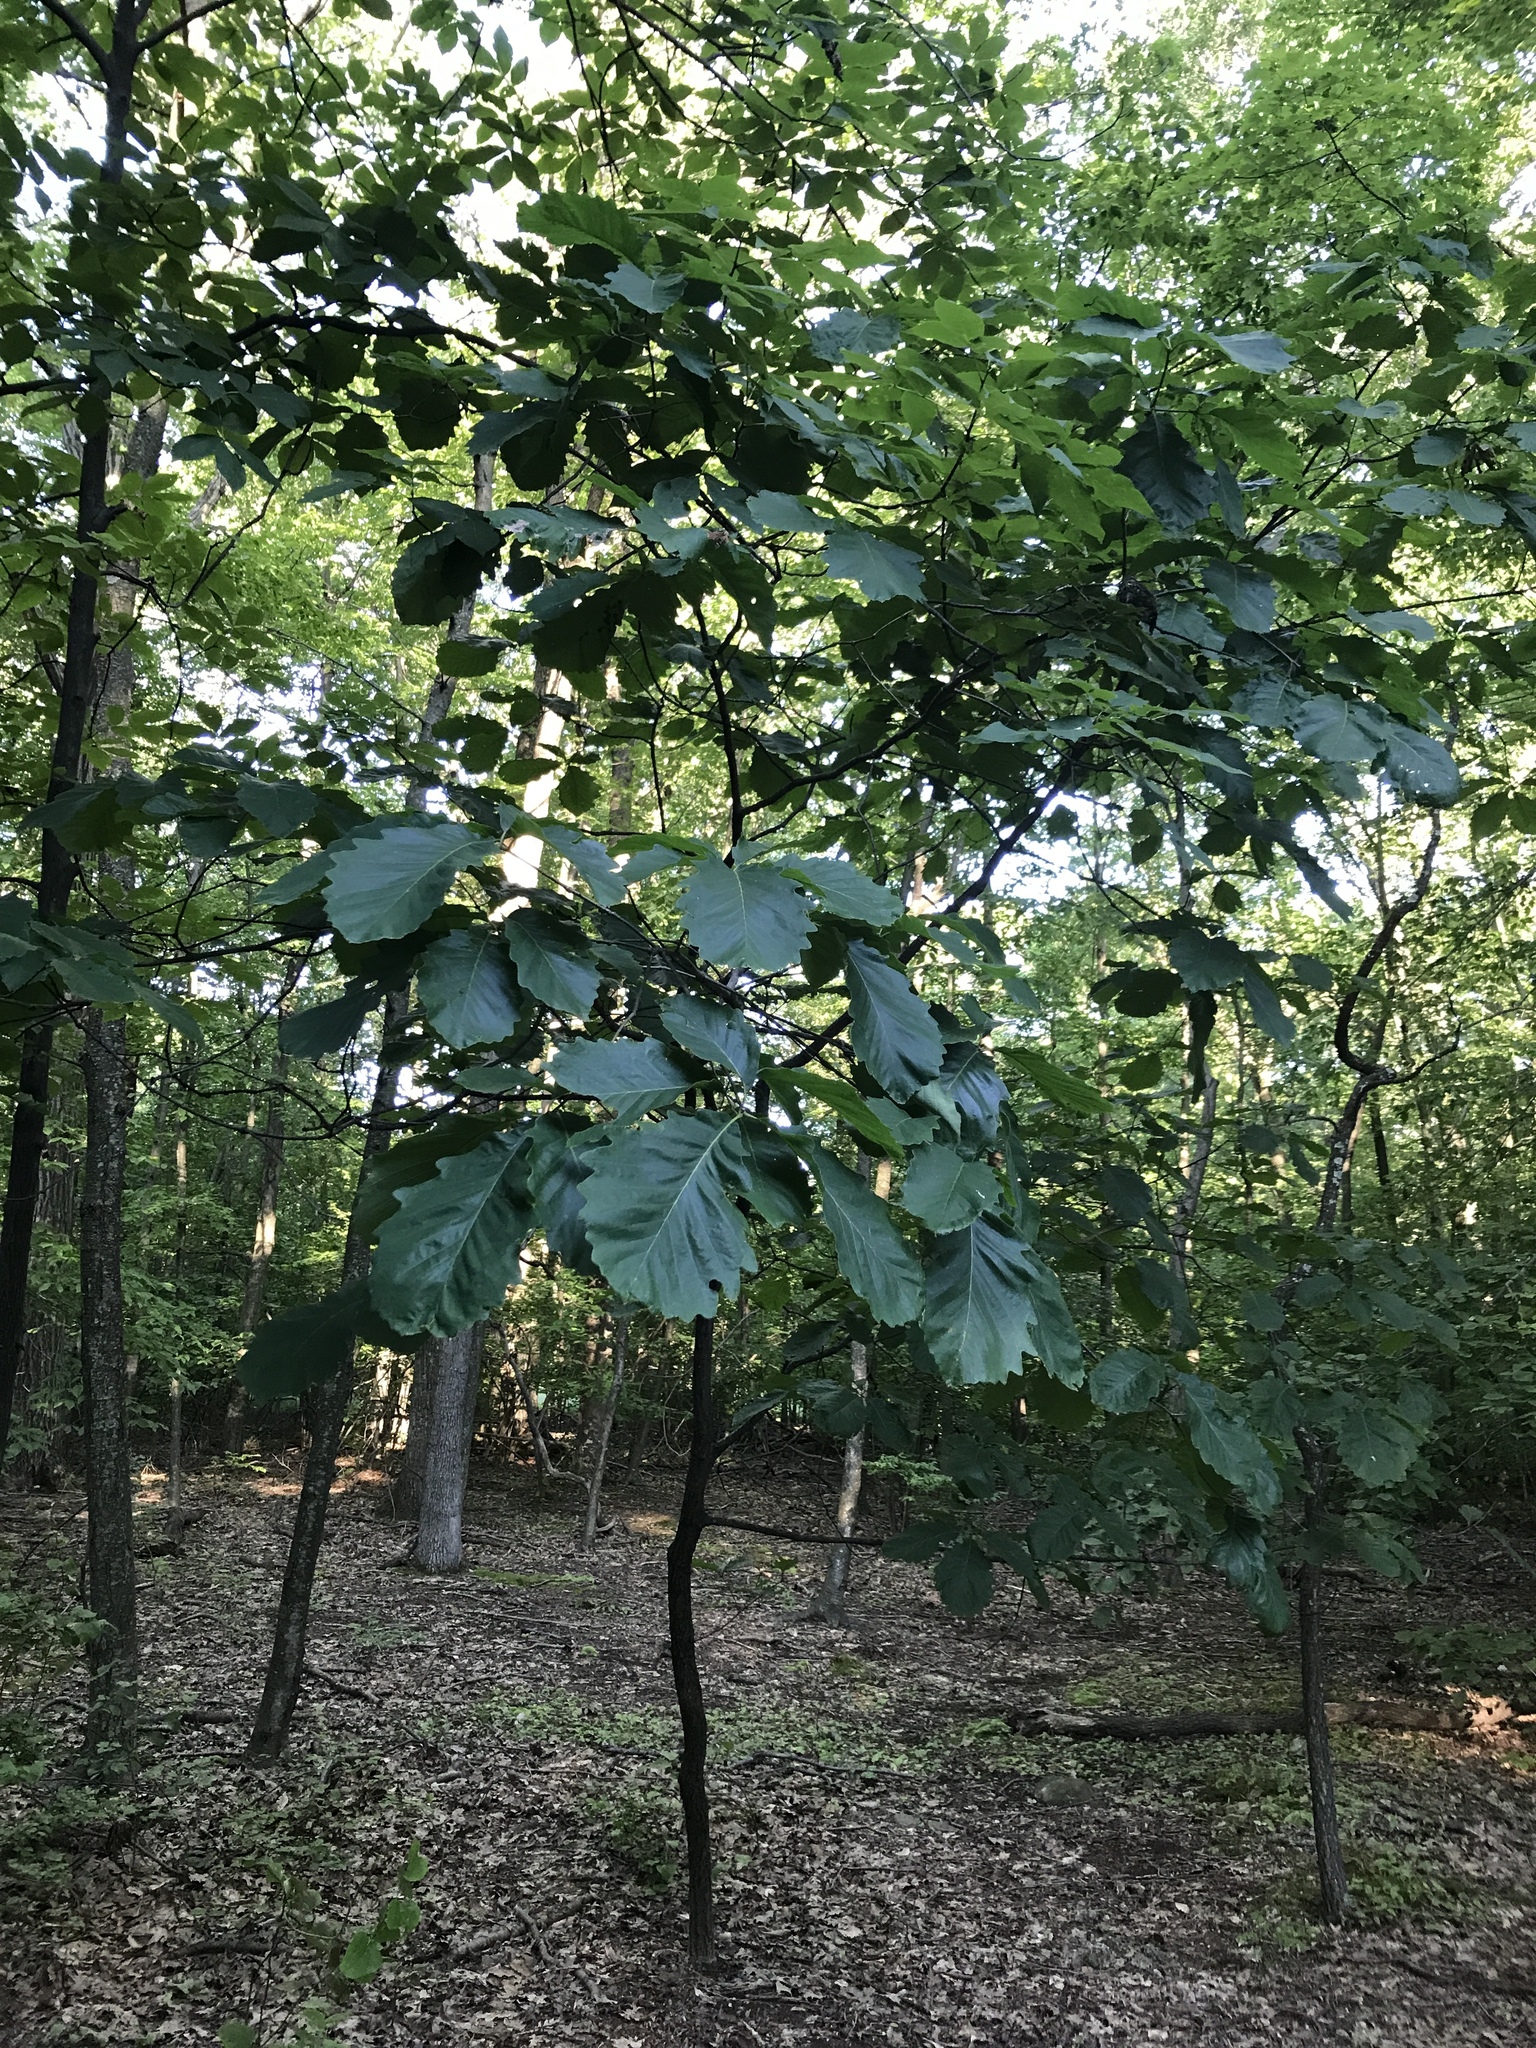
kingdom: Plantae
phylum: Tracheophyta
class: Magnoliopsida
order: Fagales
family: Fagaceae
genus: Quercus
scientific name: Quercus montana
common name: Chestnut oak
